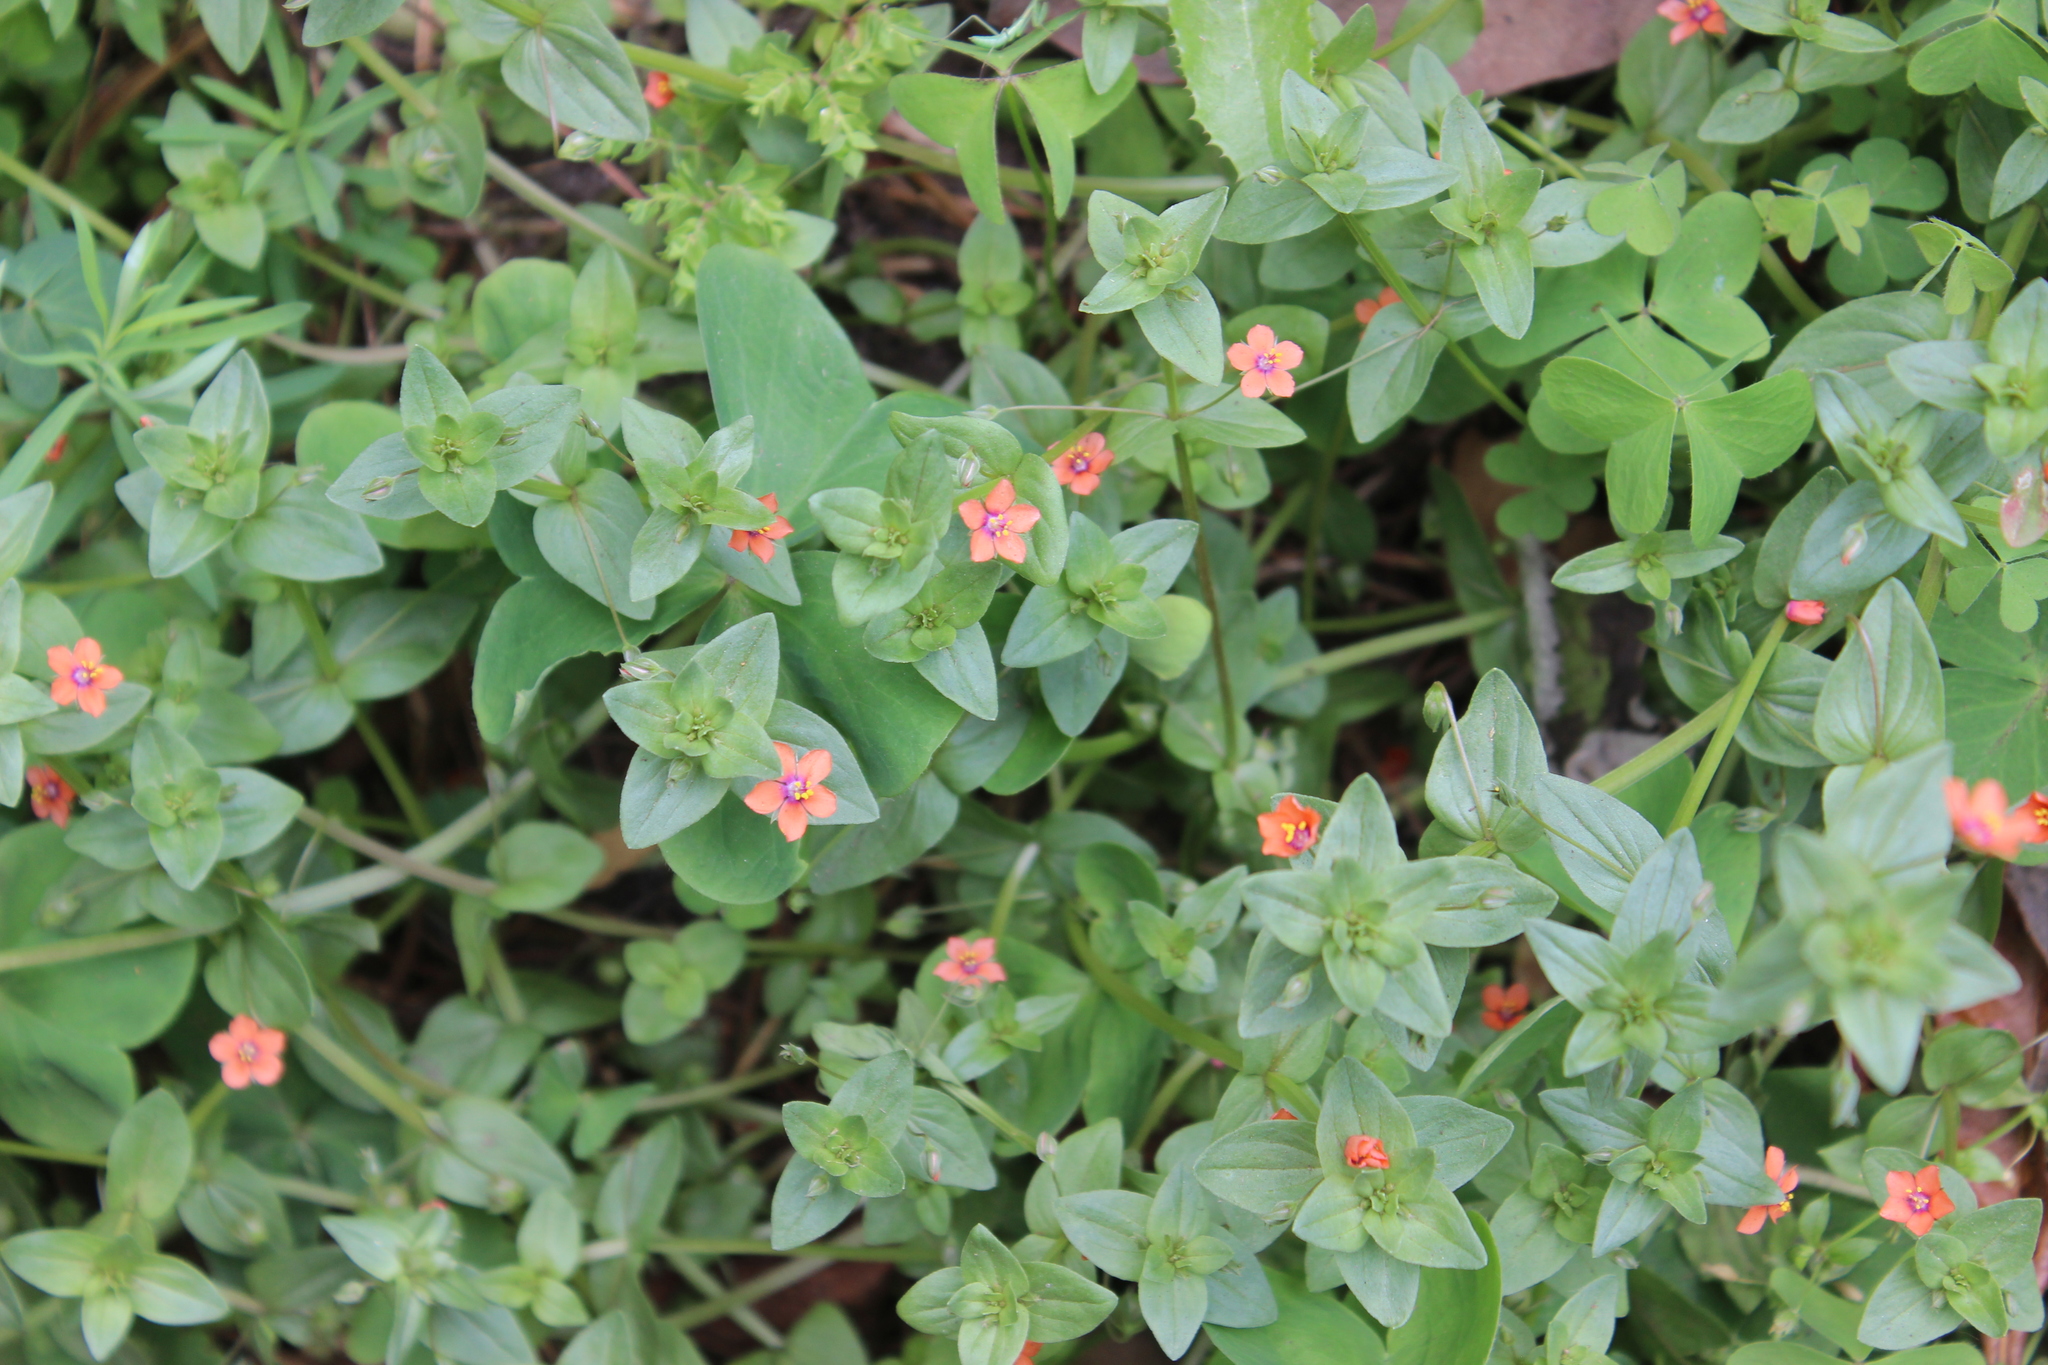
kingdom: Plantae
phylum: Tracheophyta
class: Magnoliopsida
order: Ericales
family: Primulaceae
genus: Lysimachia
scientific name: Lysimachia arvensis
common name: Scarlet pimpernel
